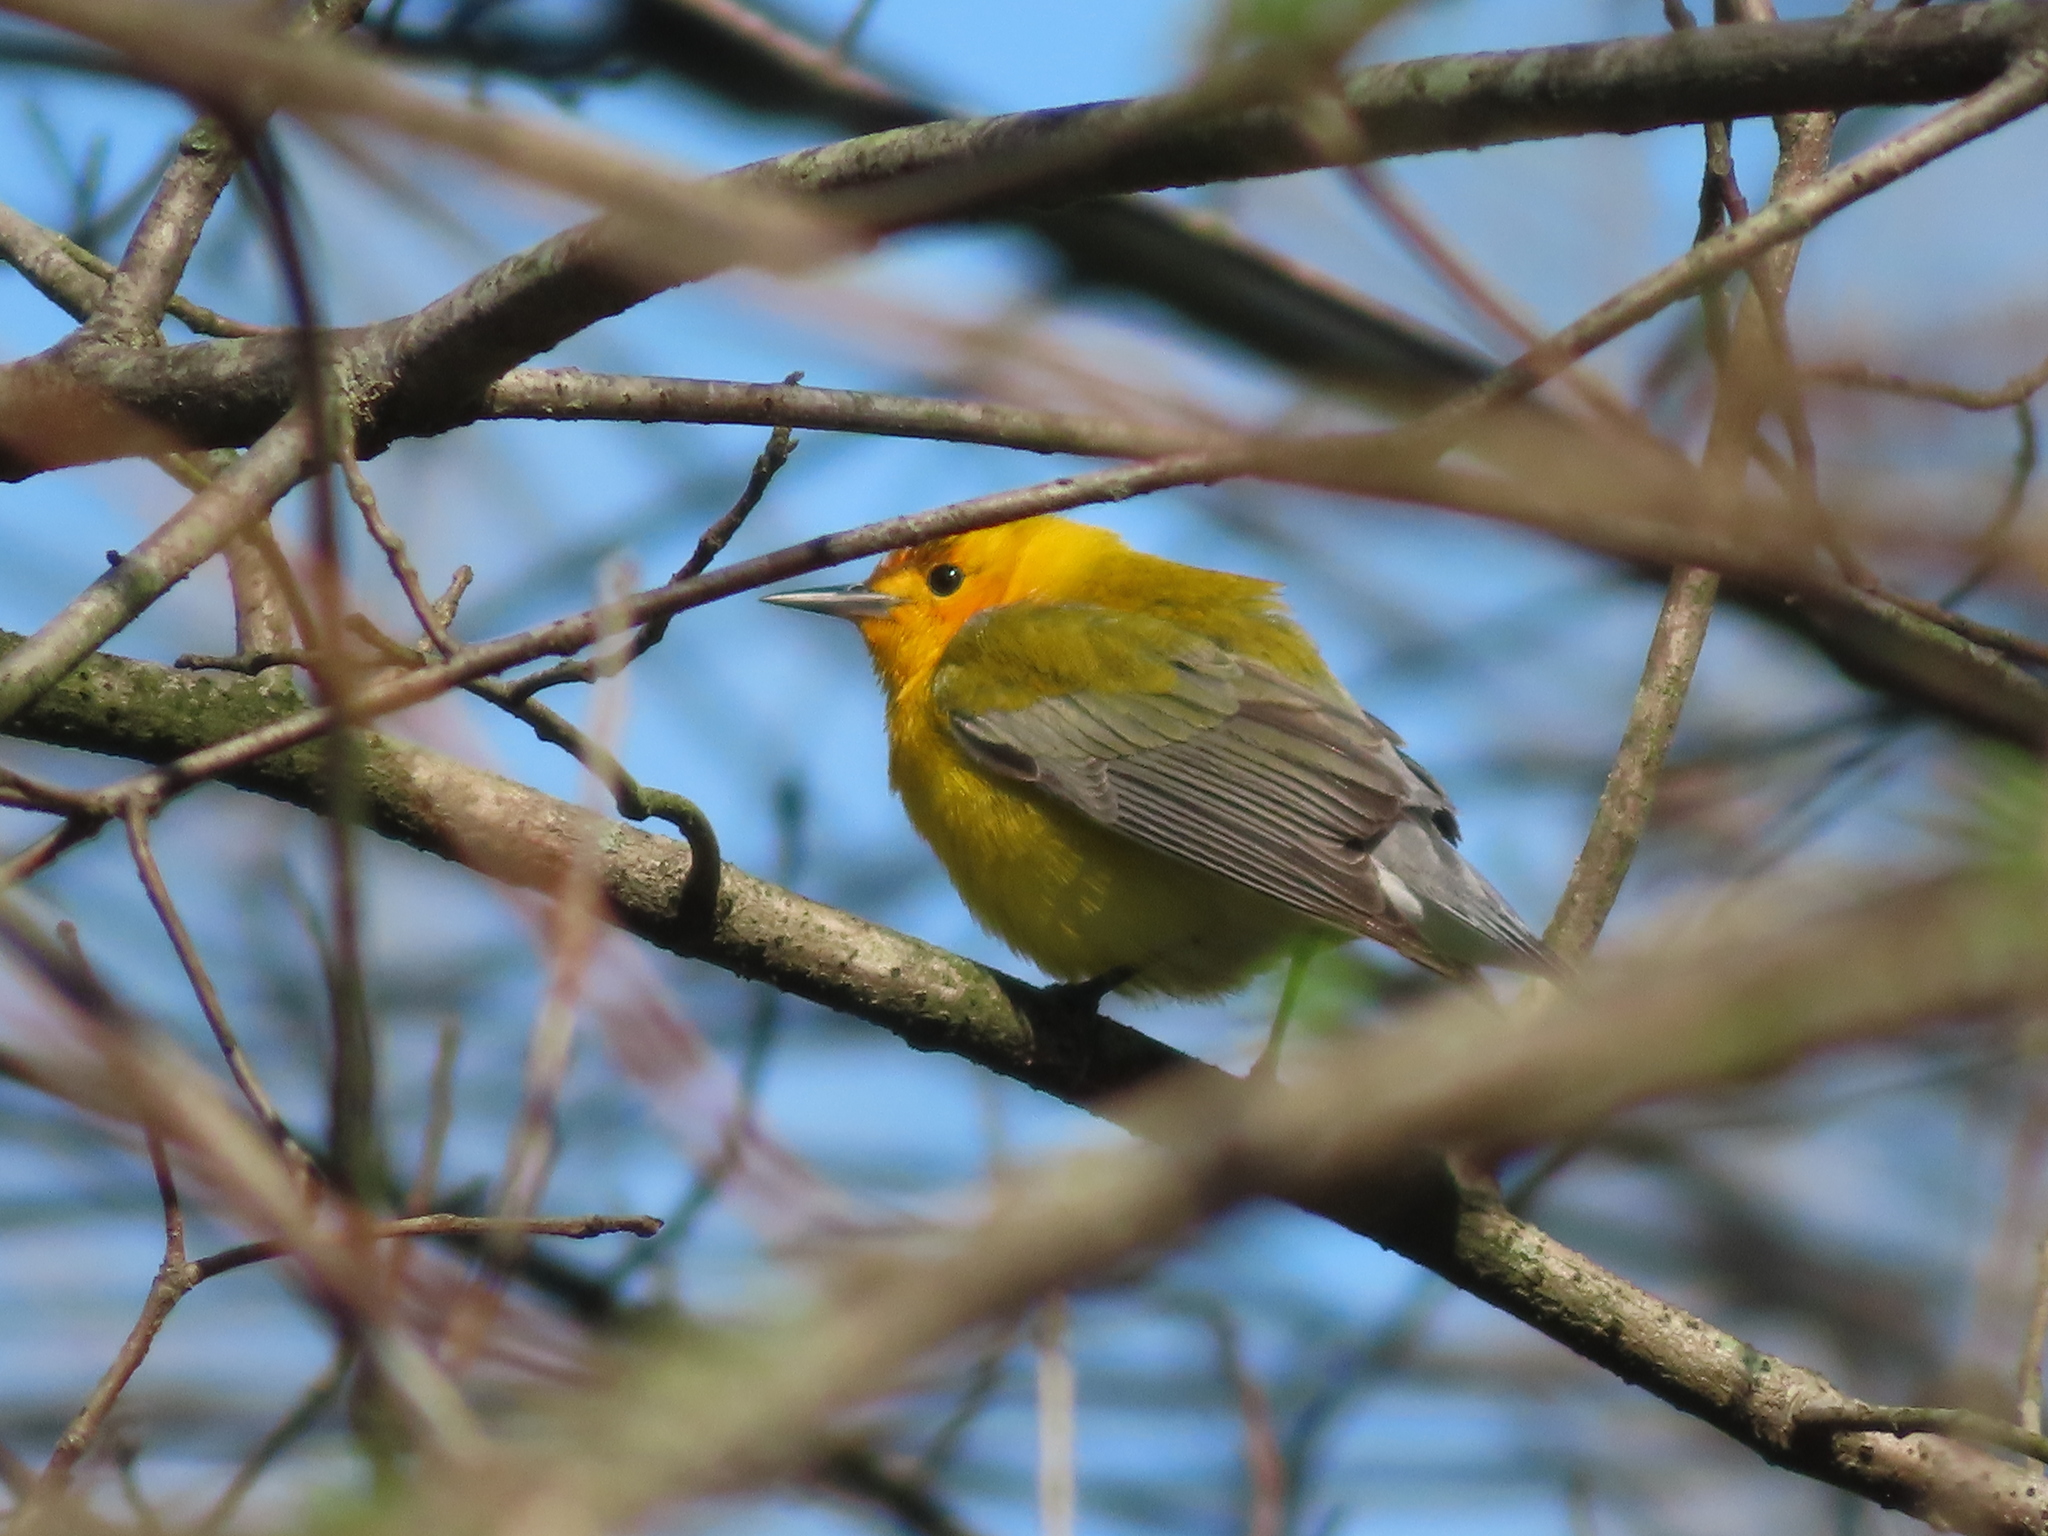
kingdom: Animalia
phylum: Chordata
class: Aves
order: Passeriformes
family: Parulidae
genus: Protonotaria
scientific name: Protonotaria citrea
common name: Prothonotary warbler
